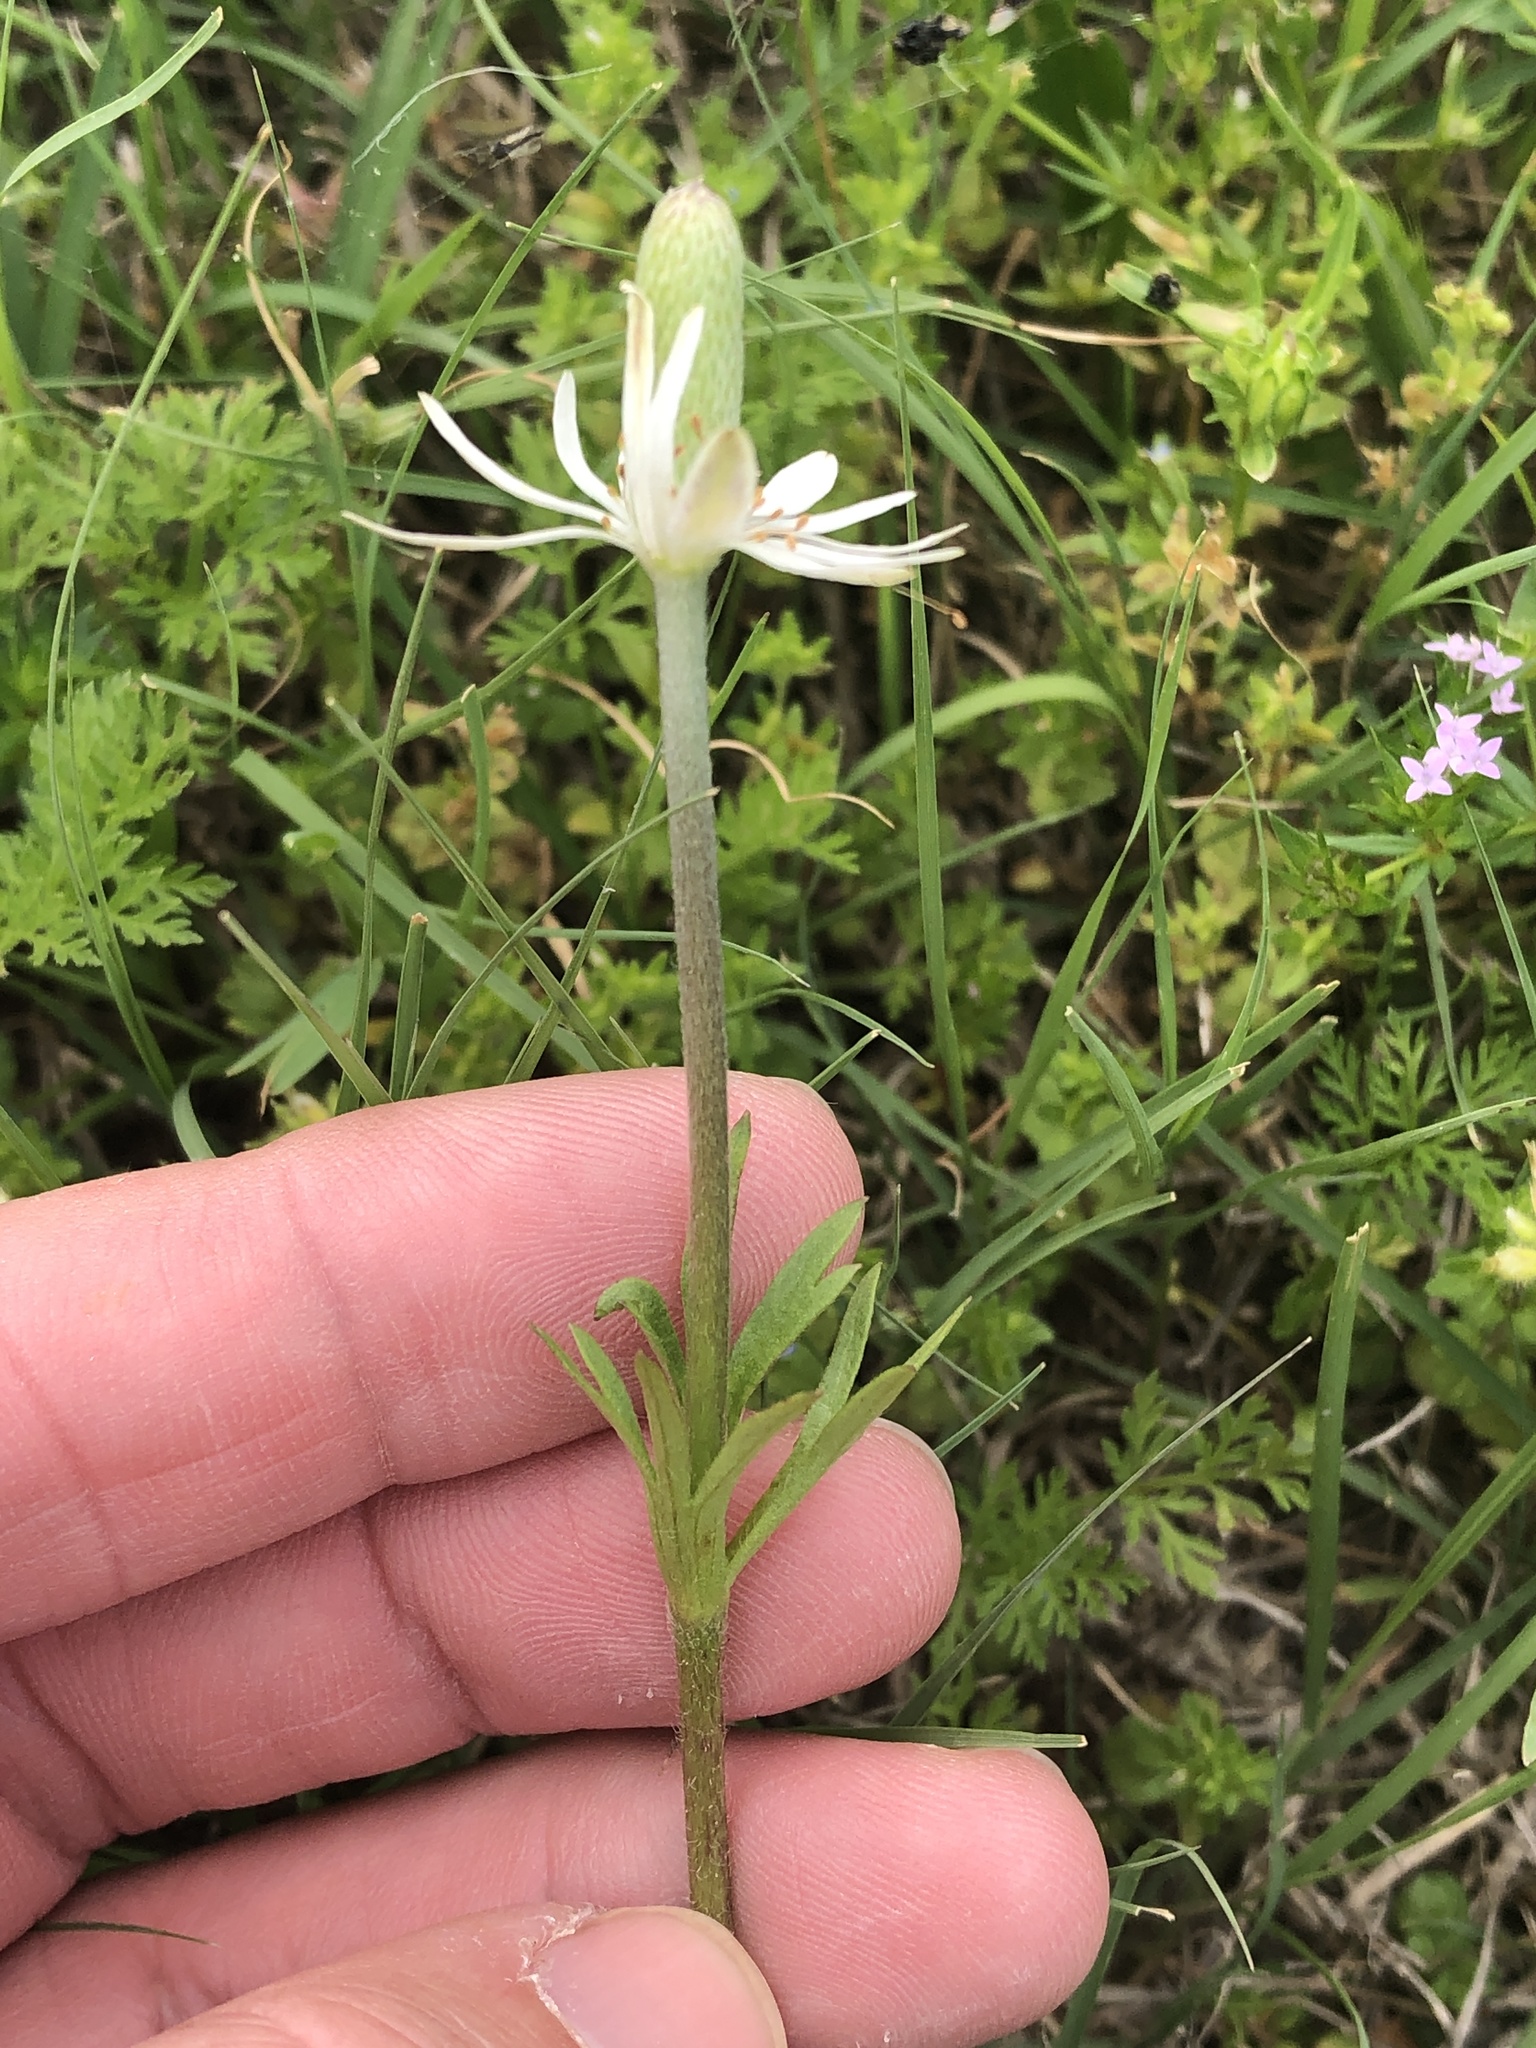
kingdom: Plantae
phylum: Tracheophyta
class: Magnoliopsida
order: Ranunculales
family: Ranunculaceae
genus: Anemone
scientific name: Anemone berlandieri
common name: Ten-petal anemone
